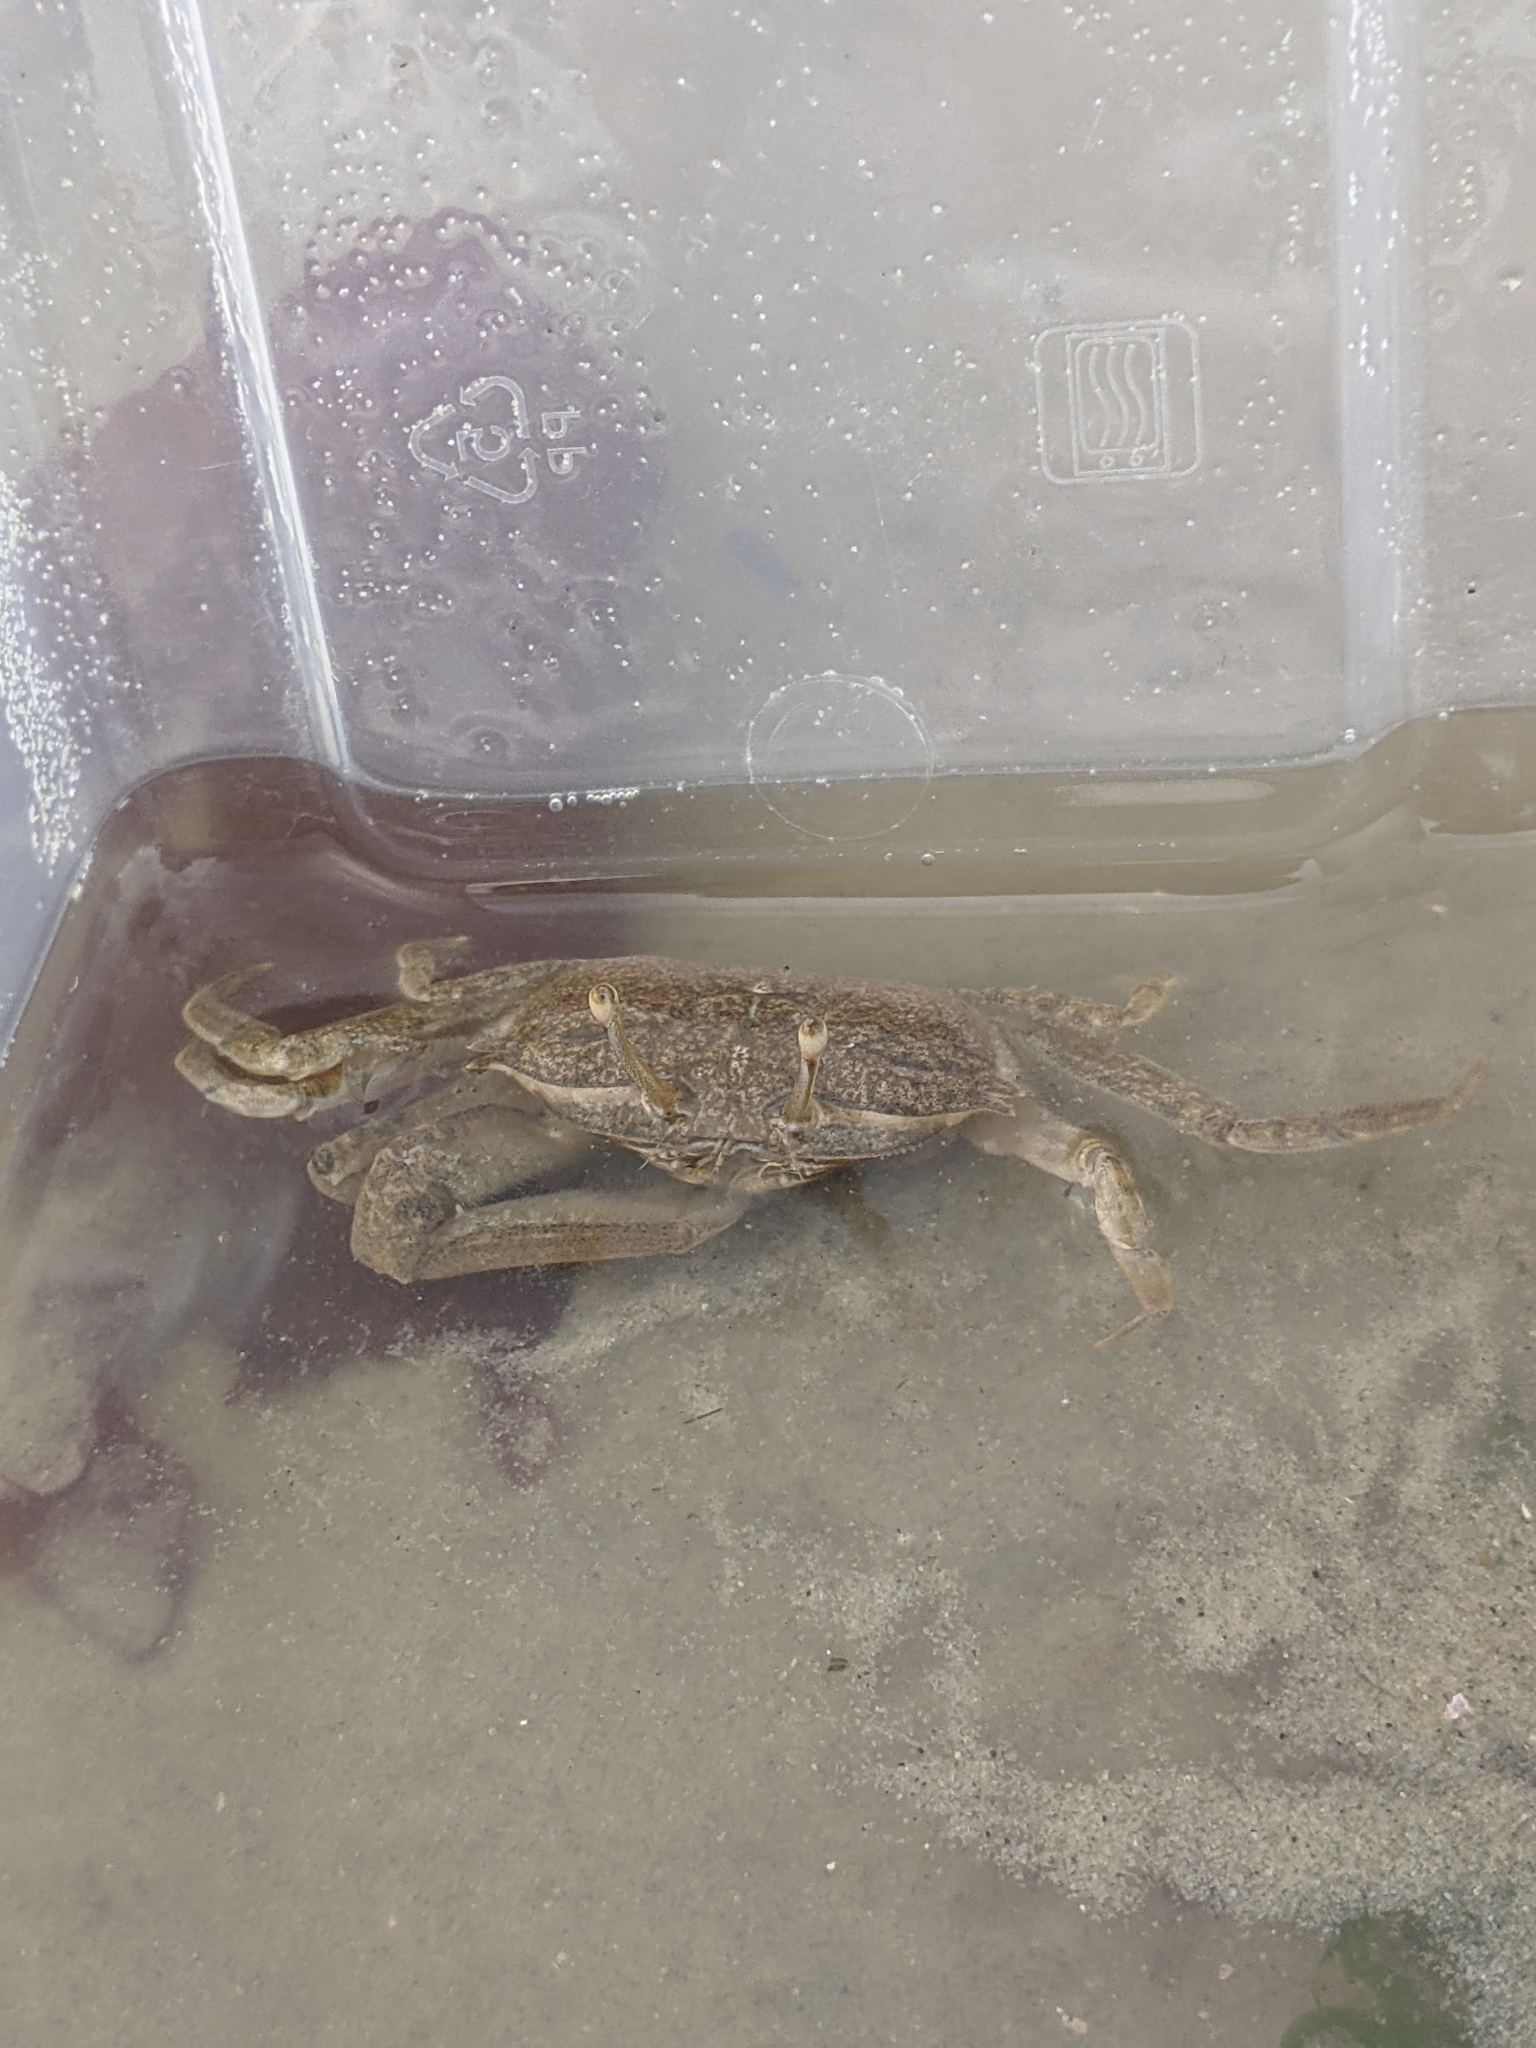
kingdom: Animalia
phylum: Arthropoda
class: Malacostraca
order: Decapoda
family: Macrophthalmidae
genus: Macrophthalmus
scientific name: Macrophthalmus brevis
